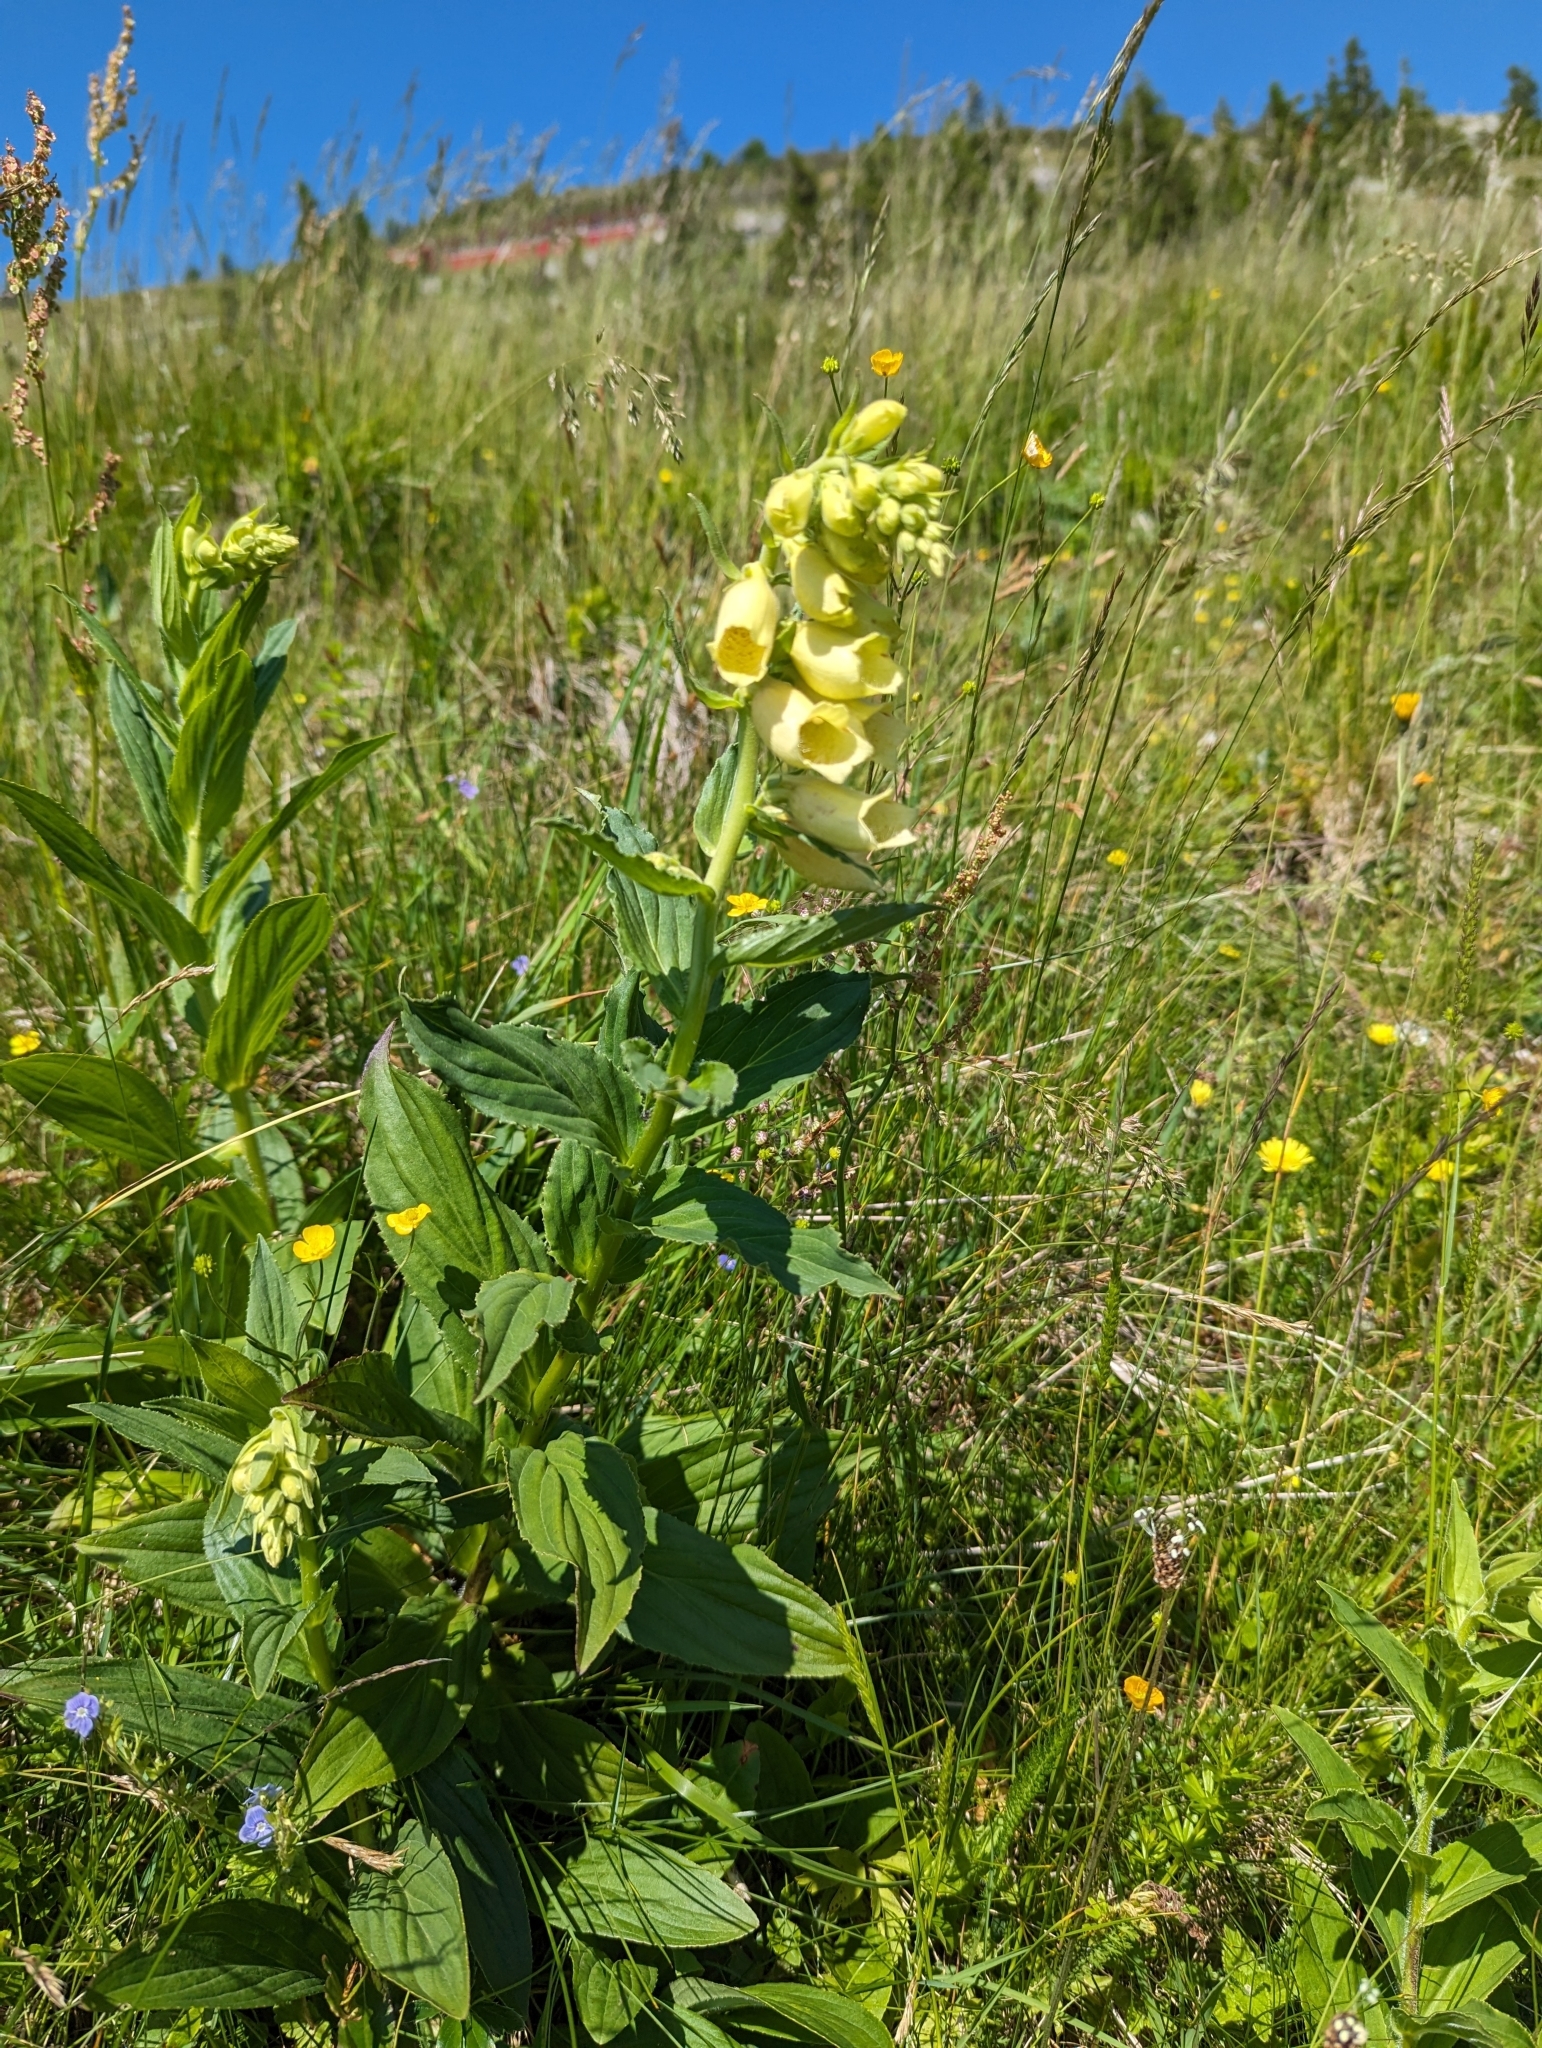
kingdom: Plantae
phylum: Tracheophyta
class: Magnoliopsida
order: Lamiales
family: Plantaginaceae
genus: Digitalis
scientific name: Digitalis grandiflora
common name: Yellow foxglove
